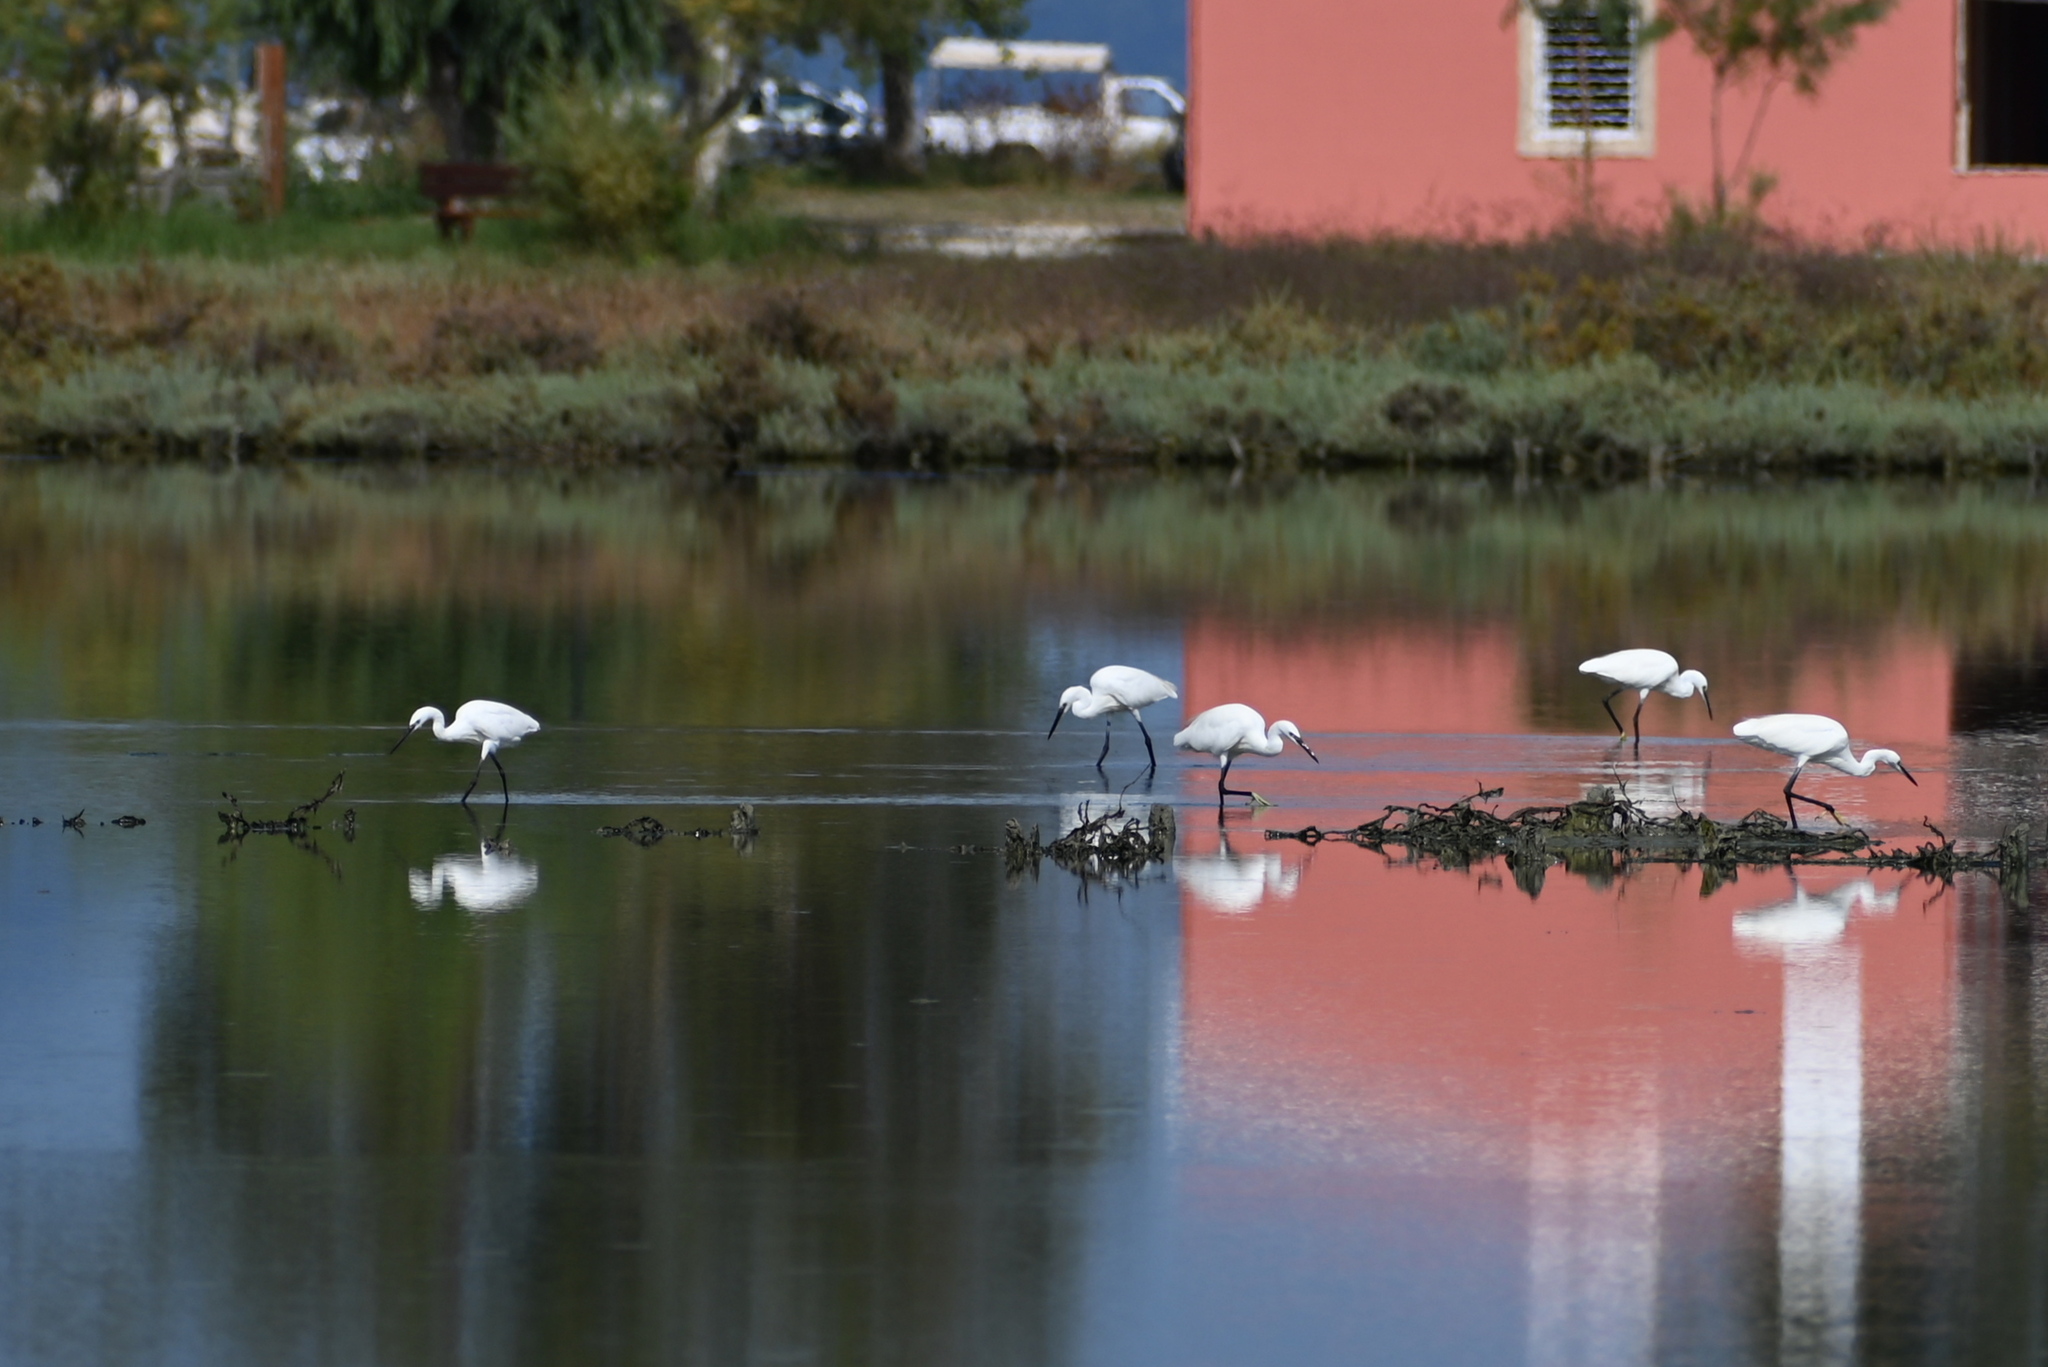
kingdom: Animalia
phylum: Chordata
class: Aves
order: Pelecaniformes
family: Ardeidae
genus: Egretta
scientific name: Egretta garzetta
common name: Little egret
